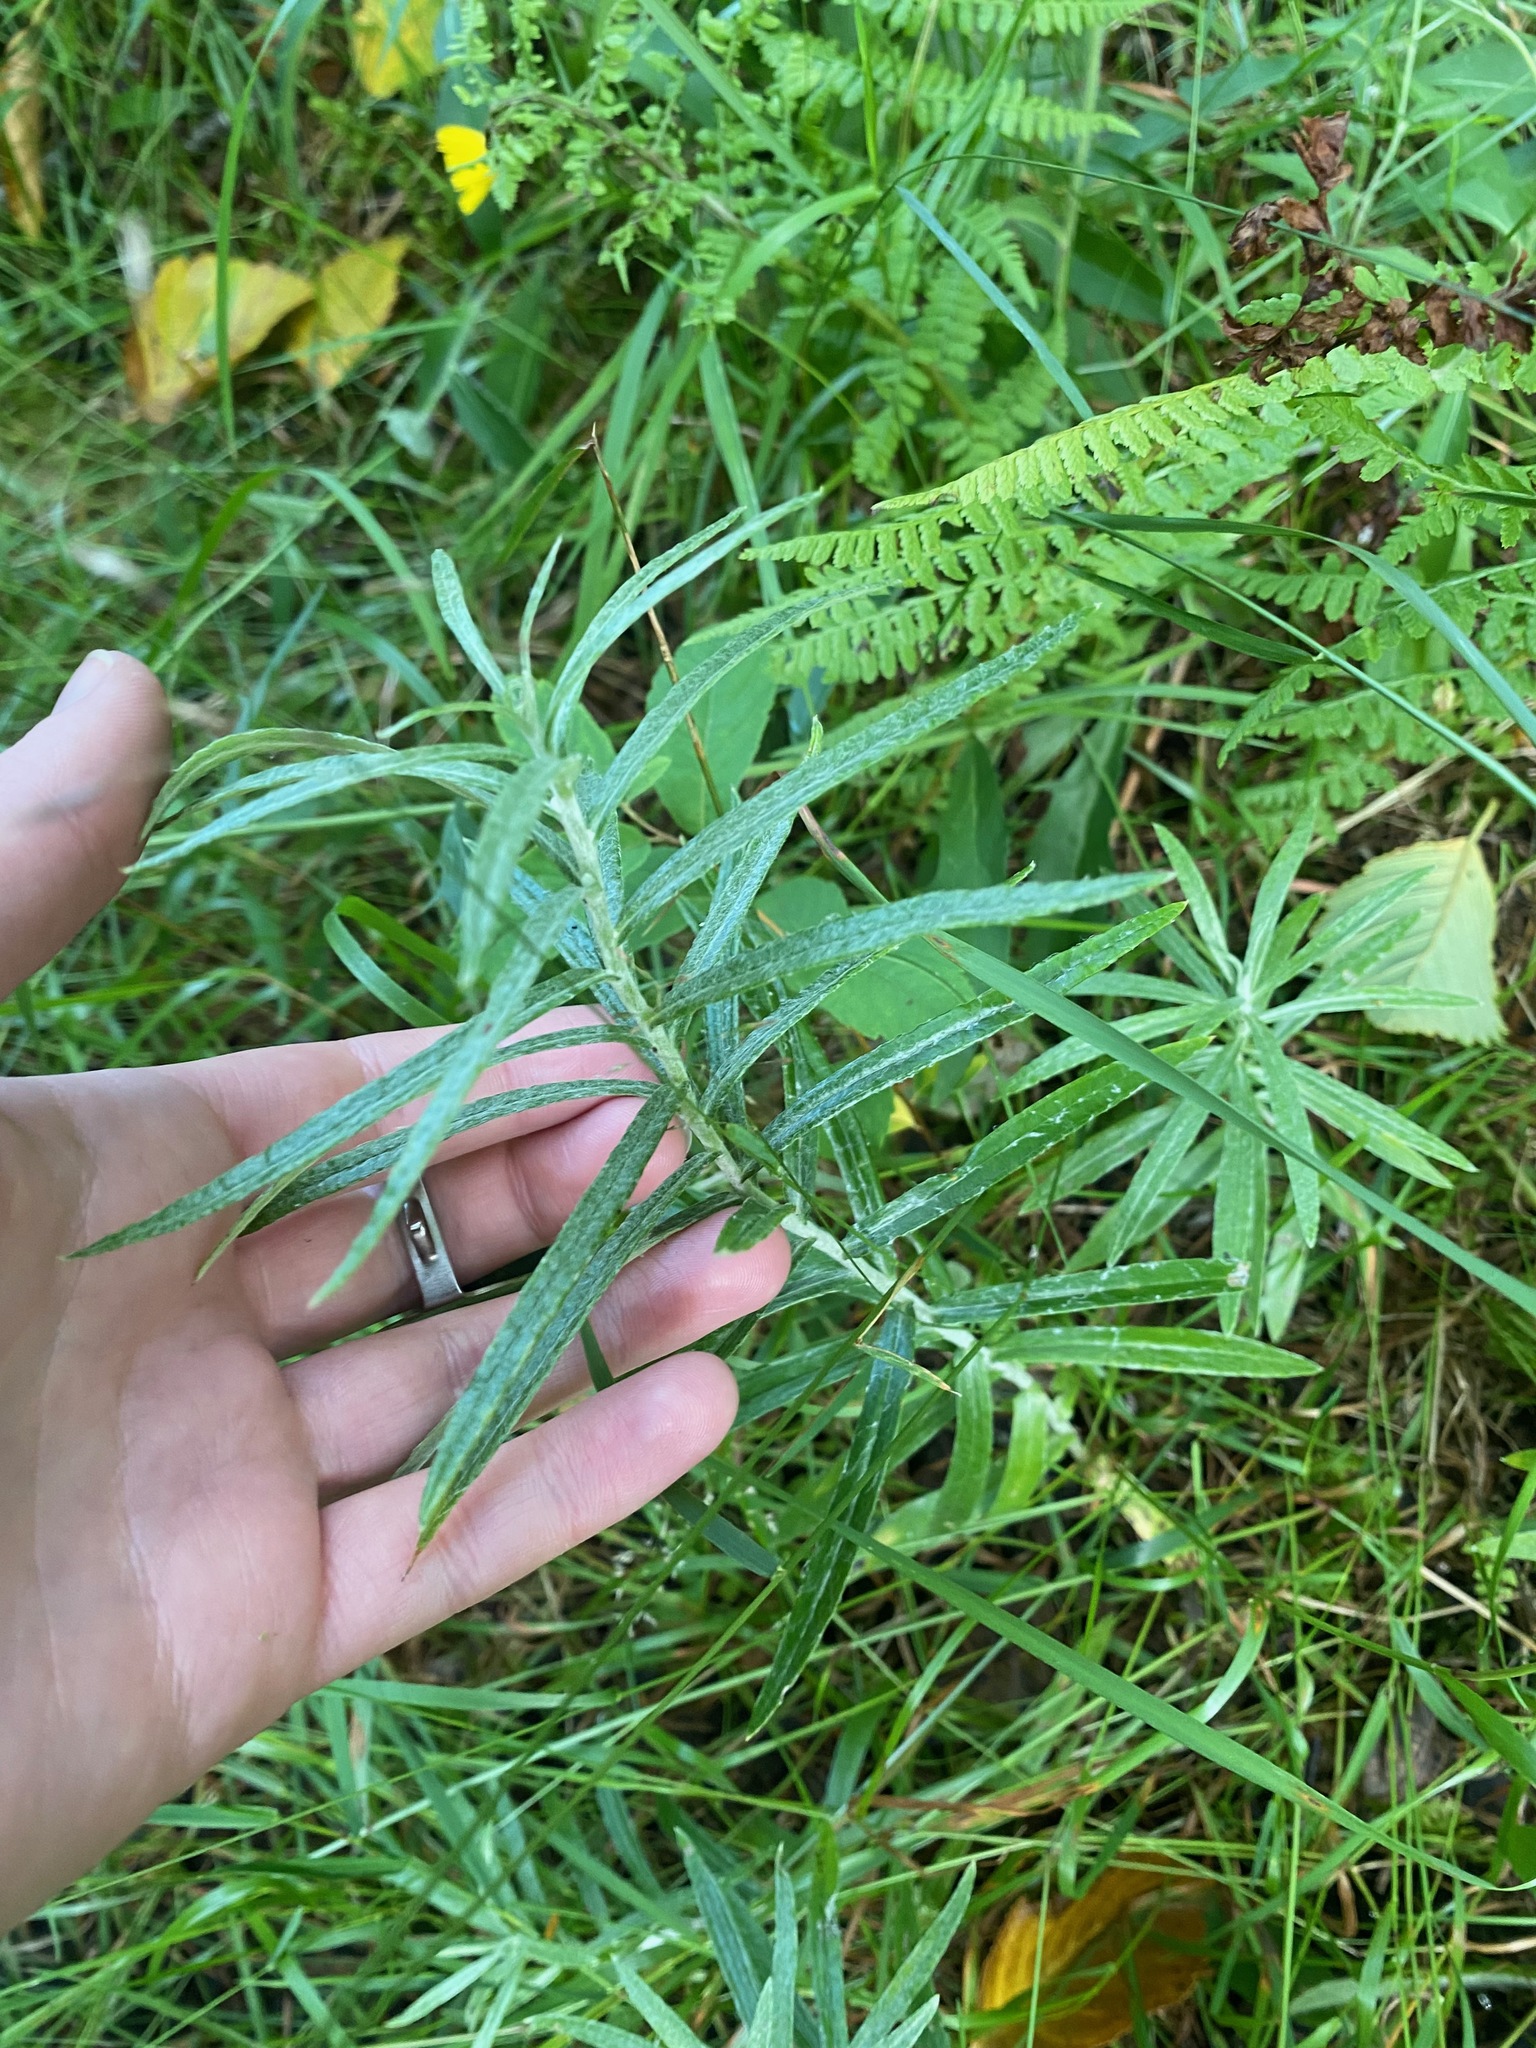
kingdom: Plantae
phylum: Tracheophyta
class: Magnoliopsida
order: Asterales
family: Asteraceae
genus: Anaphalis
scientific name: Anaphalis margaritacea
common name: Pearly everlasting
